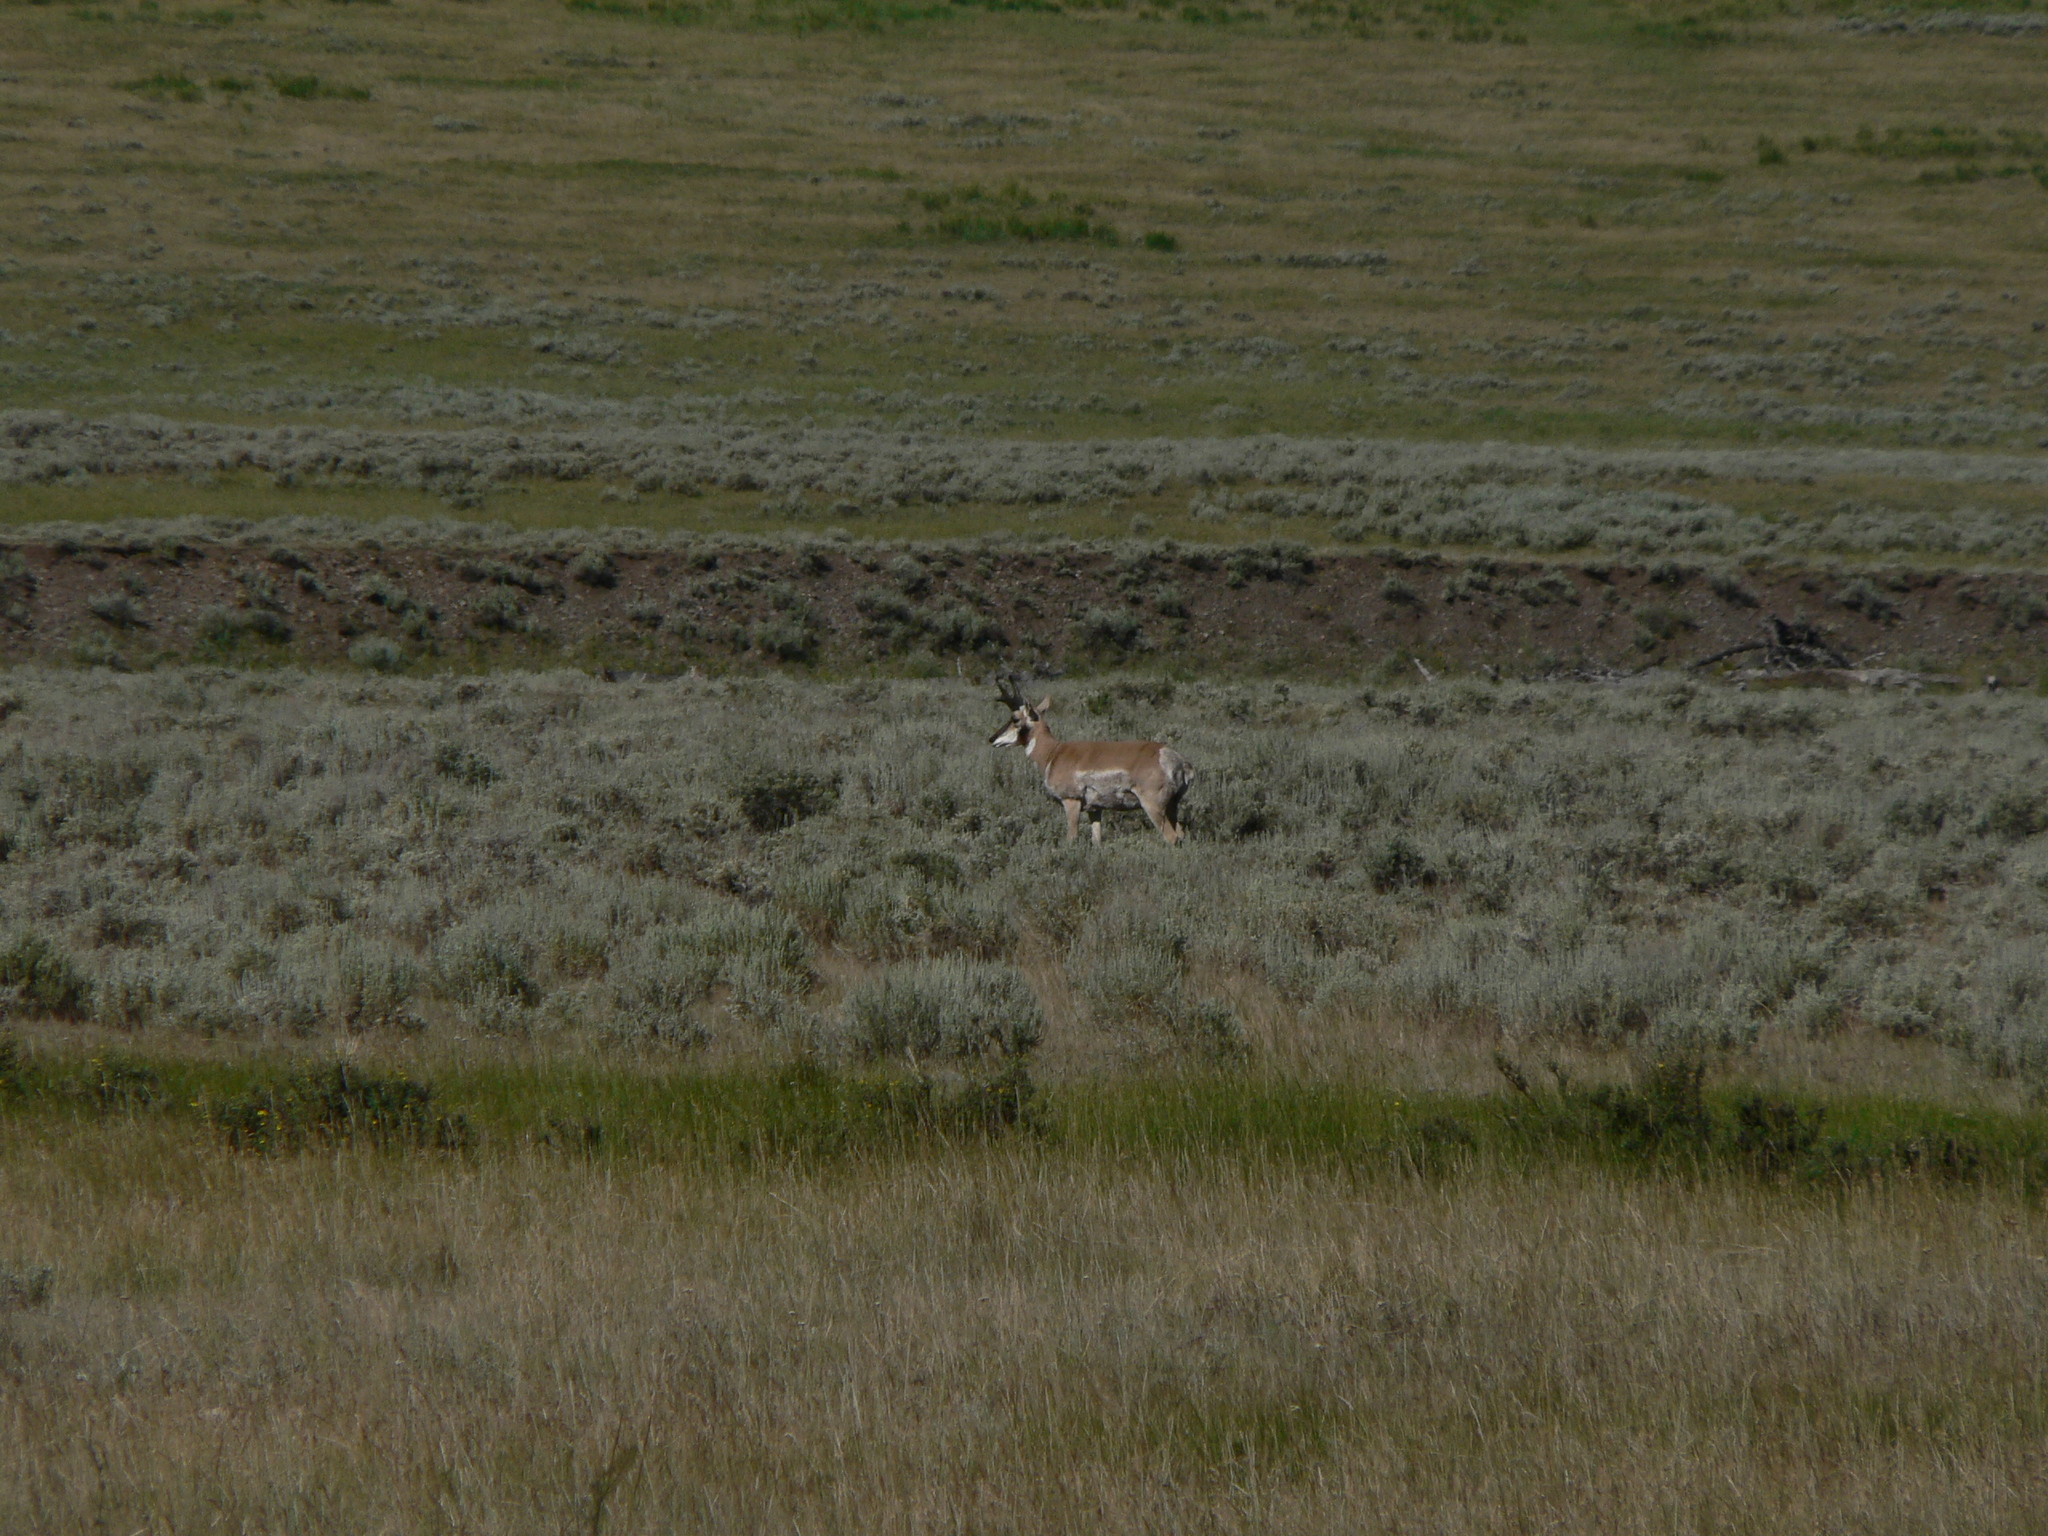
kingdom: Animalia
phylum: Chordata
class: Mammalia
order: Artiodactyla
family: Antilocapridae
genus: Antilocapra
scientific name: Antilocapra americana
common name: Pronghorn
